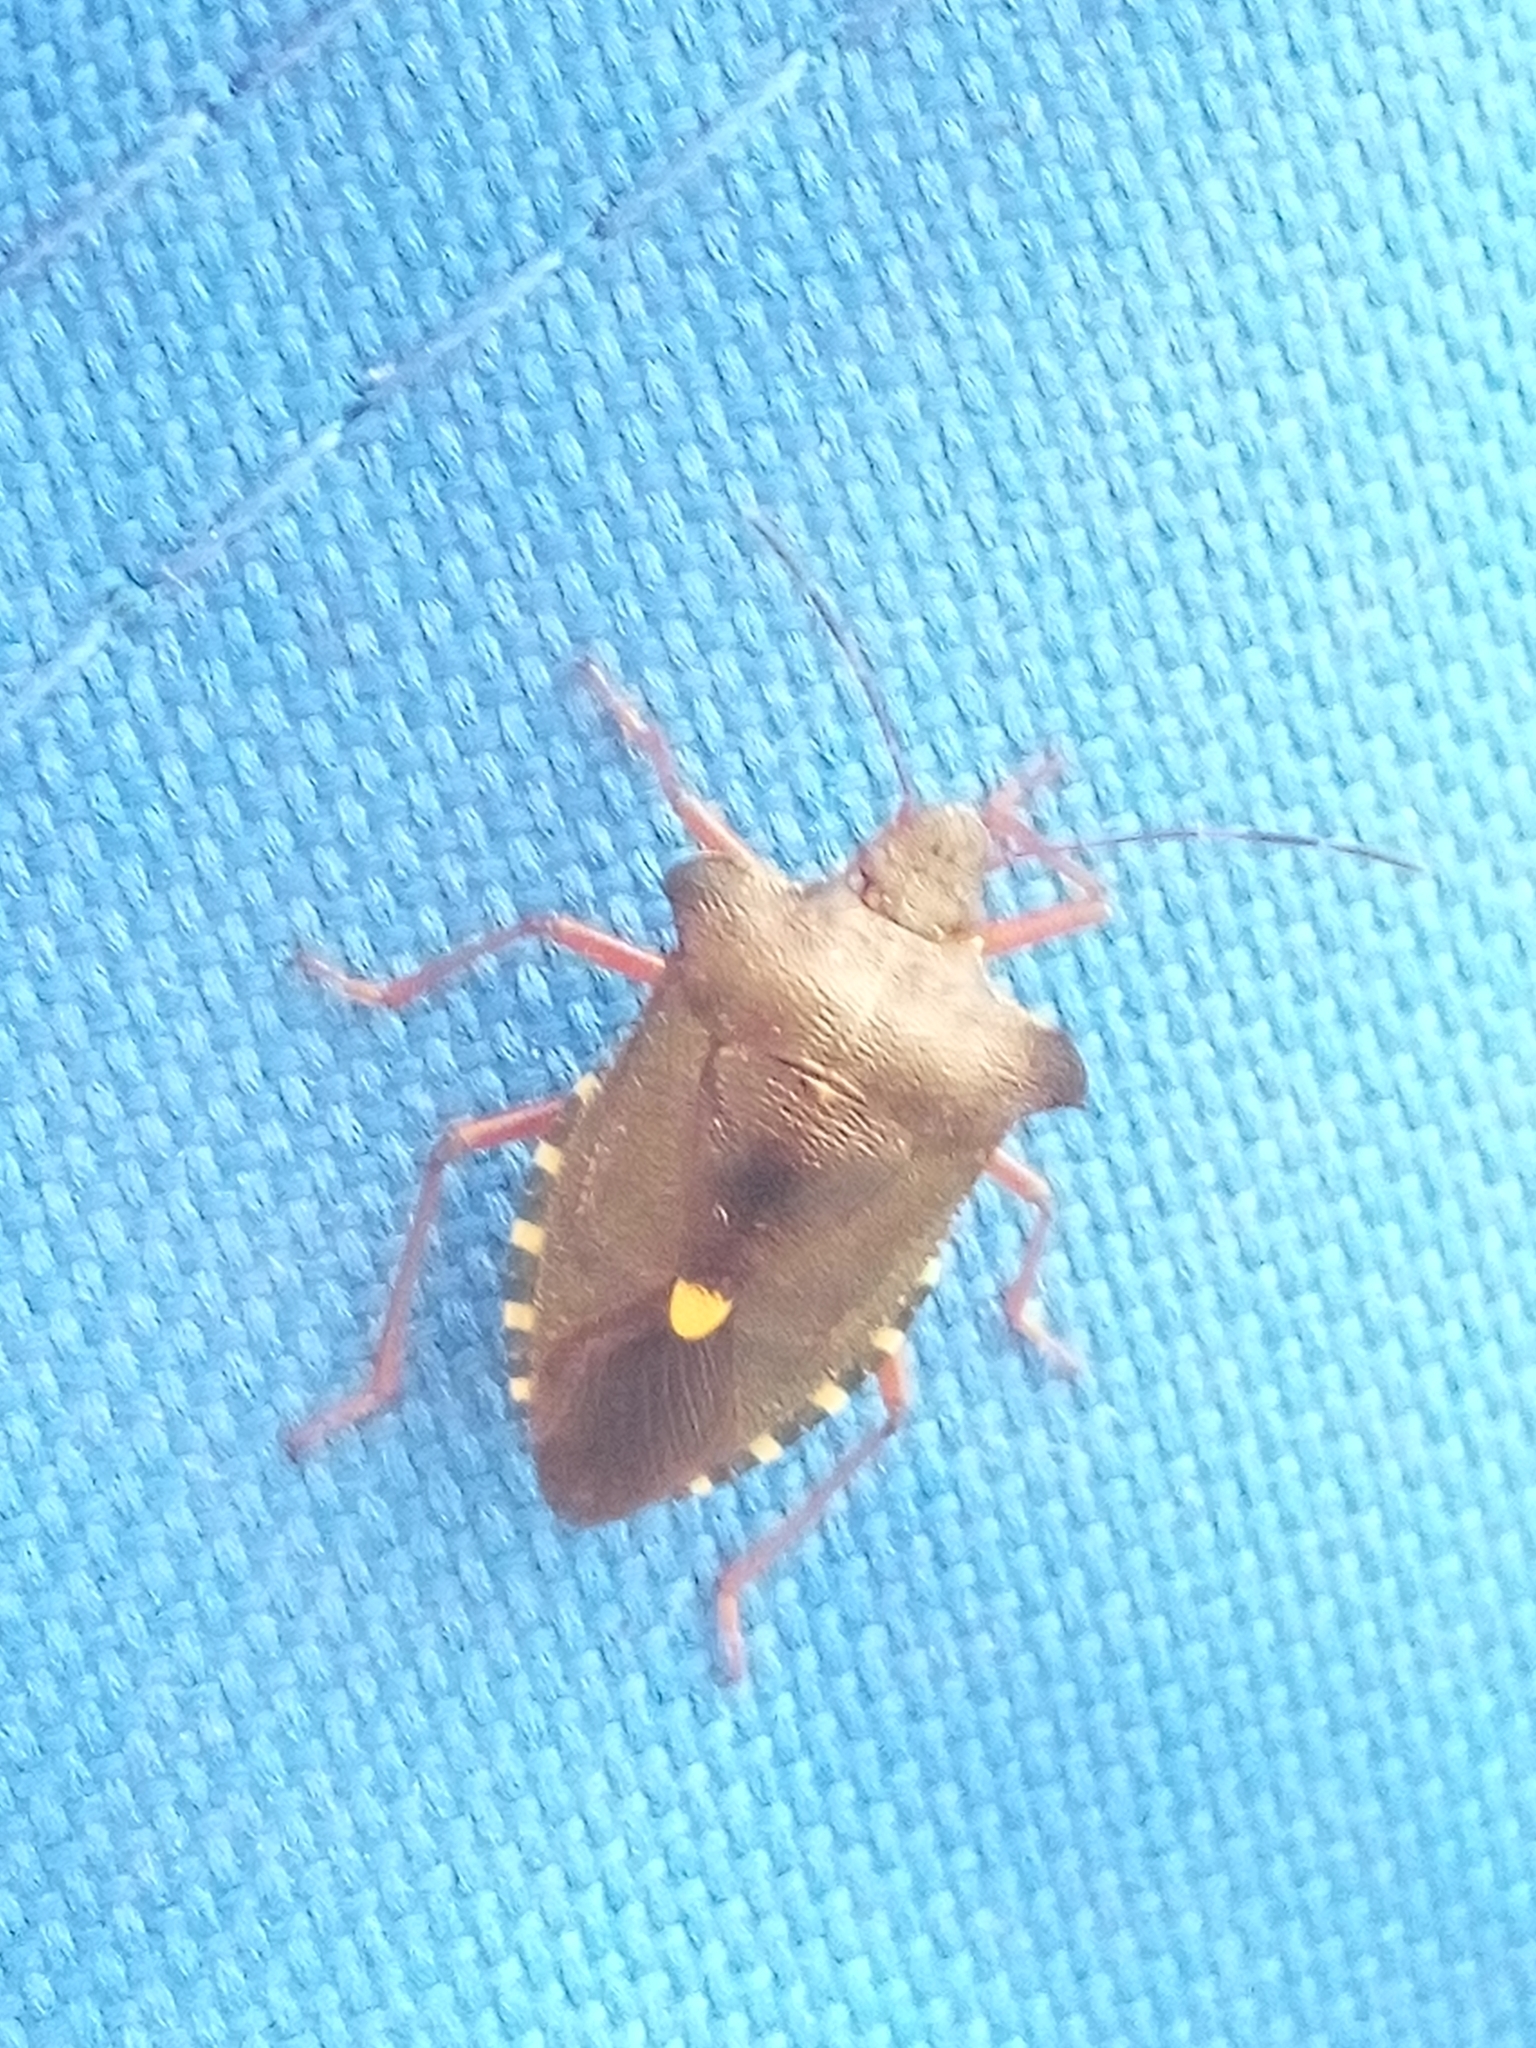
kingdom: Animalia
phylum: Arthropoda
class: Insecta
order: Hemiptera
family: Pentatomidae
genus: Pentatoma
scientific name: Pentatoma rufipes
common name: Forest bug
